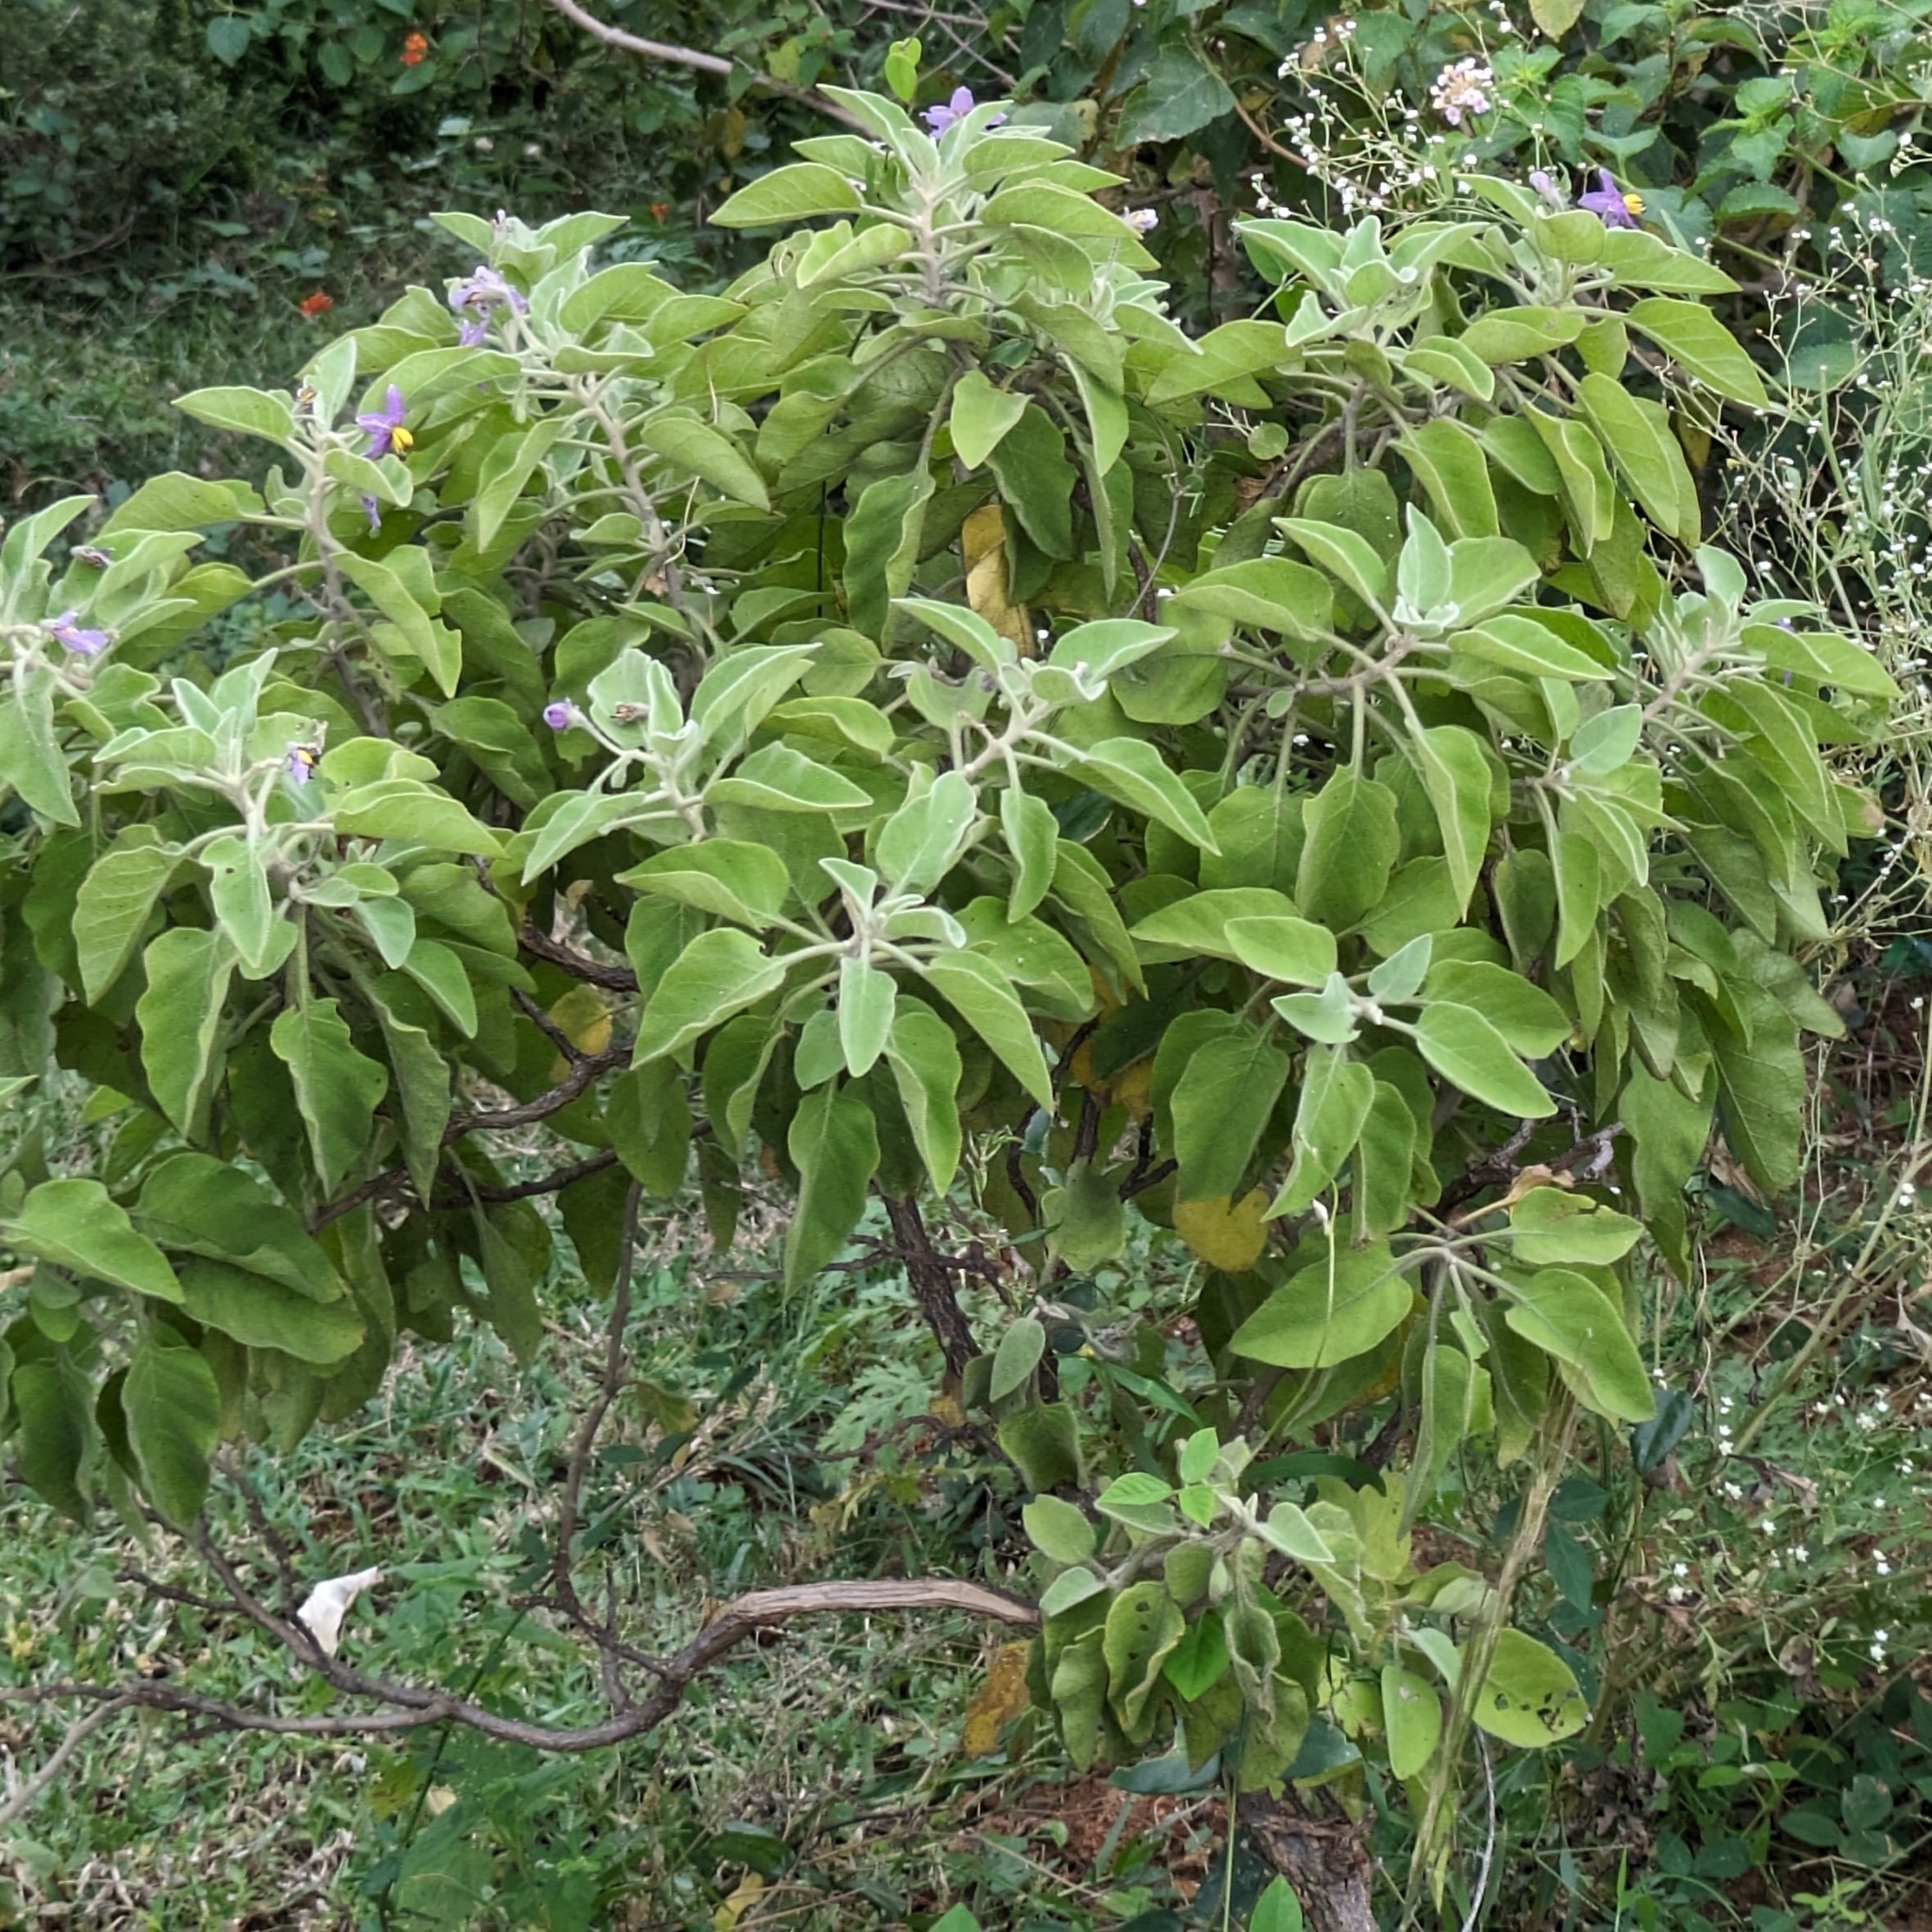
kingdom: Plantae
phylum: Tracheophyta
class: Magnoliopsida
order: Solanales
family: Solanaceae
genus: Solanum
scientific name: Solanum pubescens
